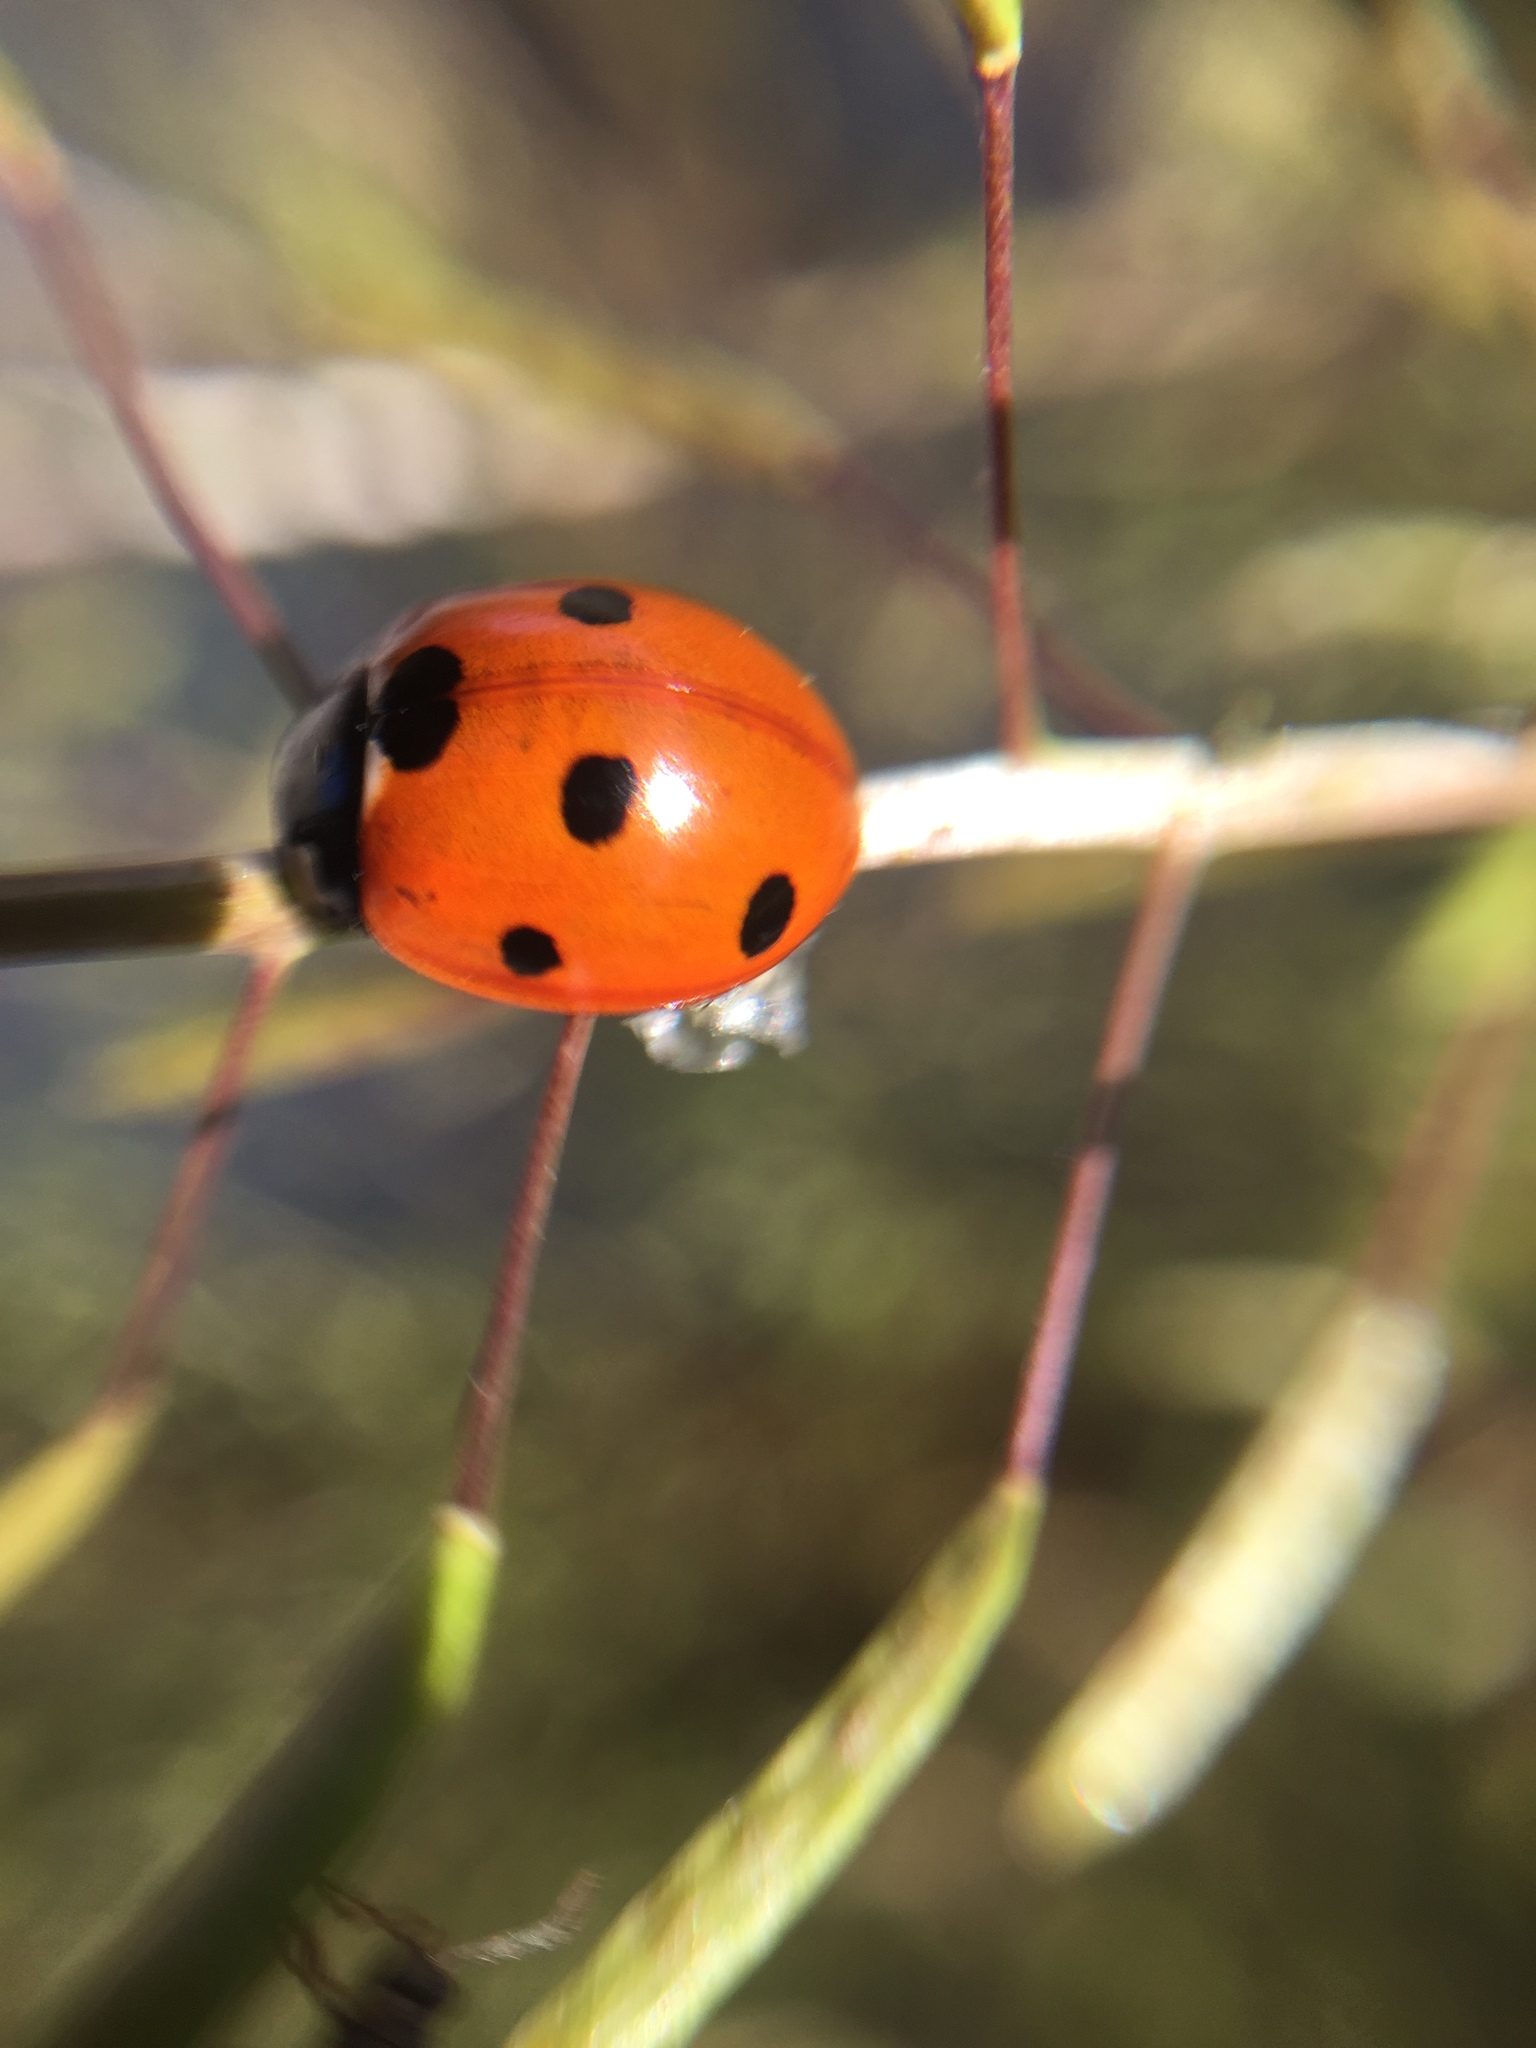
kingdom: Animalia
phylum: Arthropoda
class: Insecta
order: Coleoptera
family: Coccinellidae
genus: Coccinella
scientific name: Coccinella septempunctata
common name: Sevenspotted lady beetle
